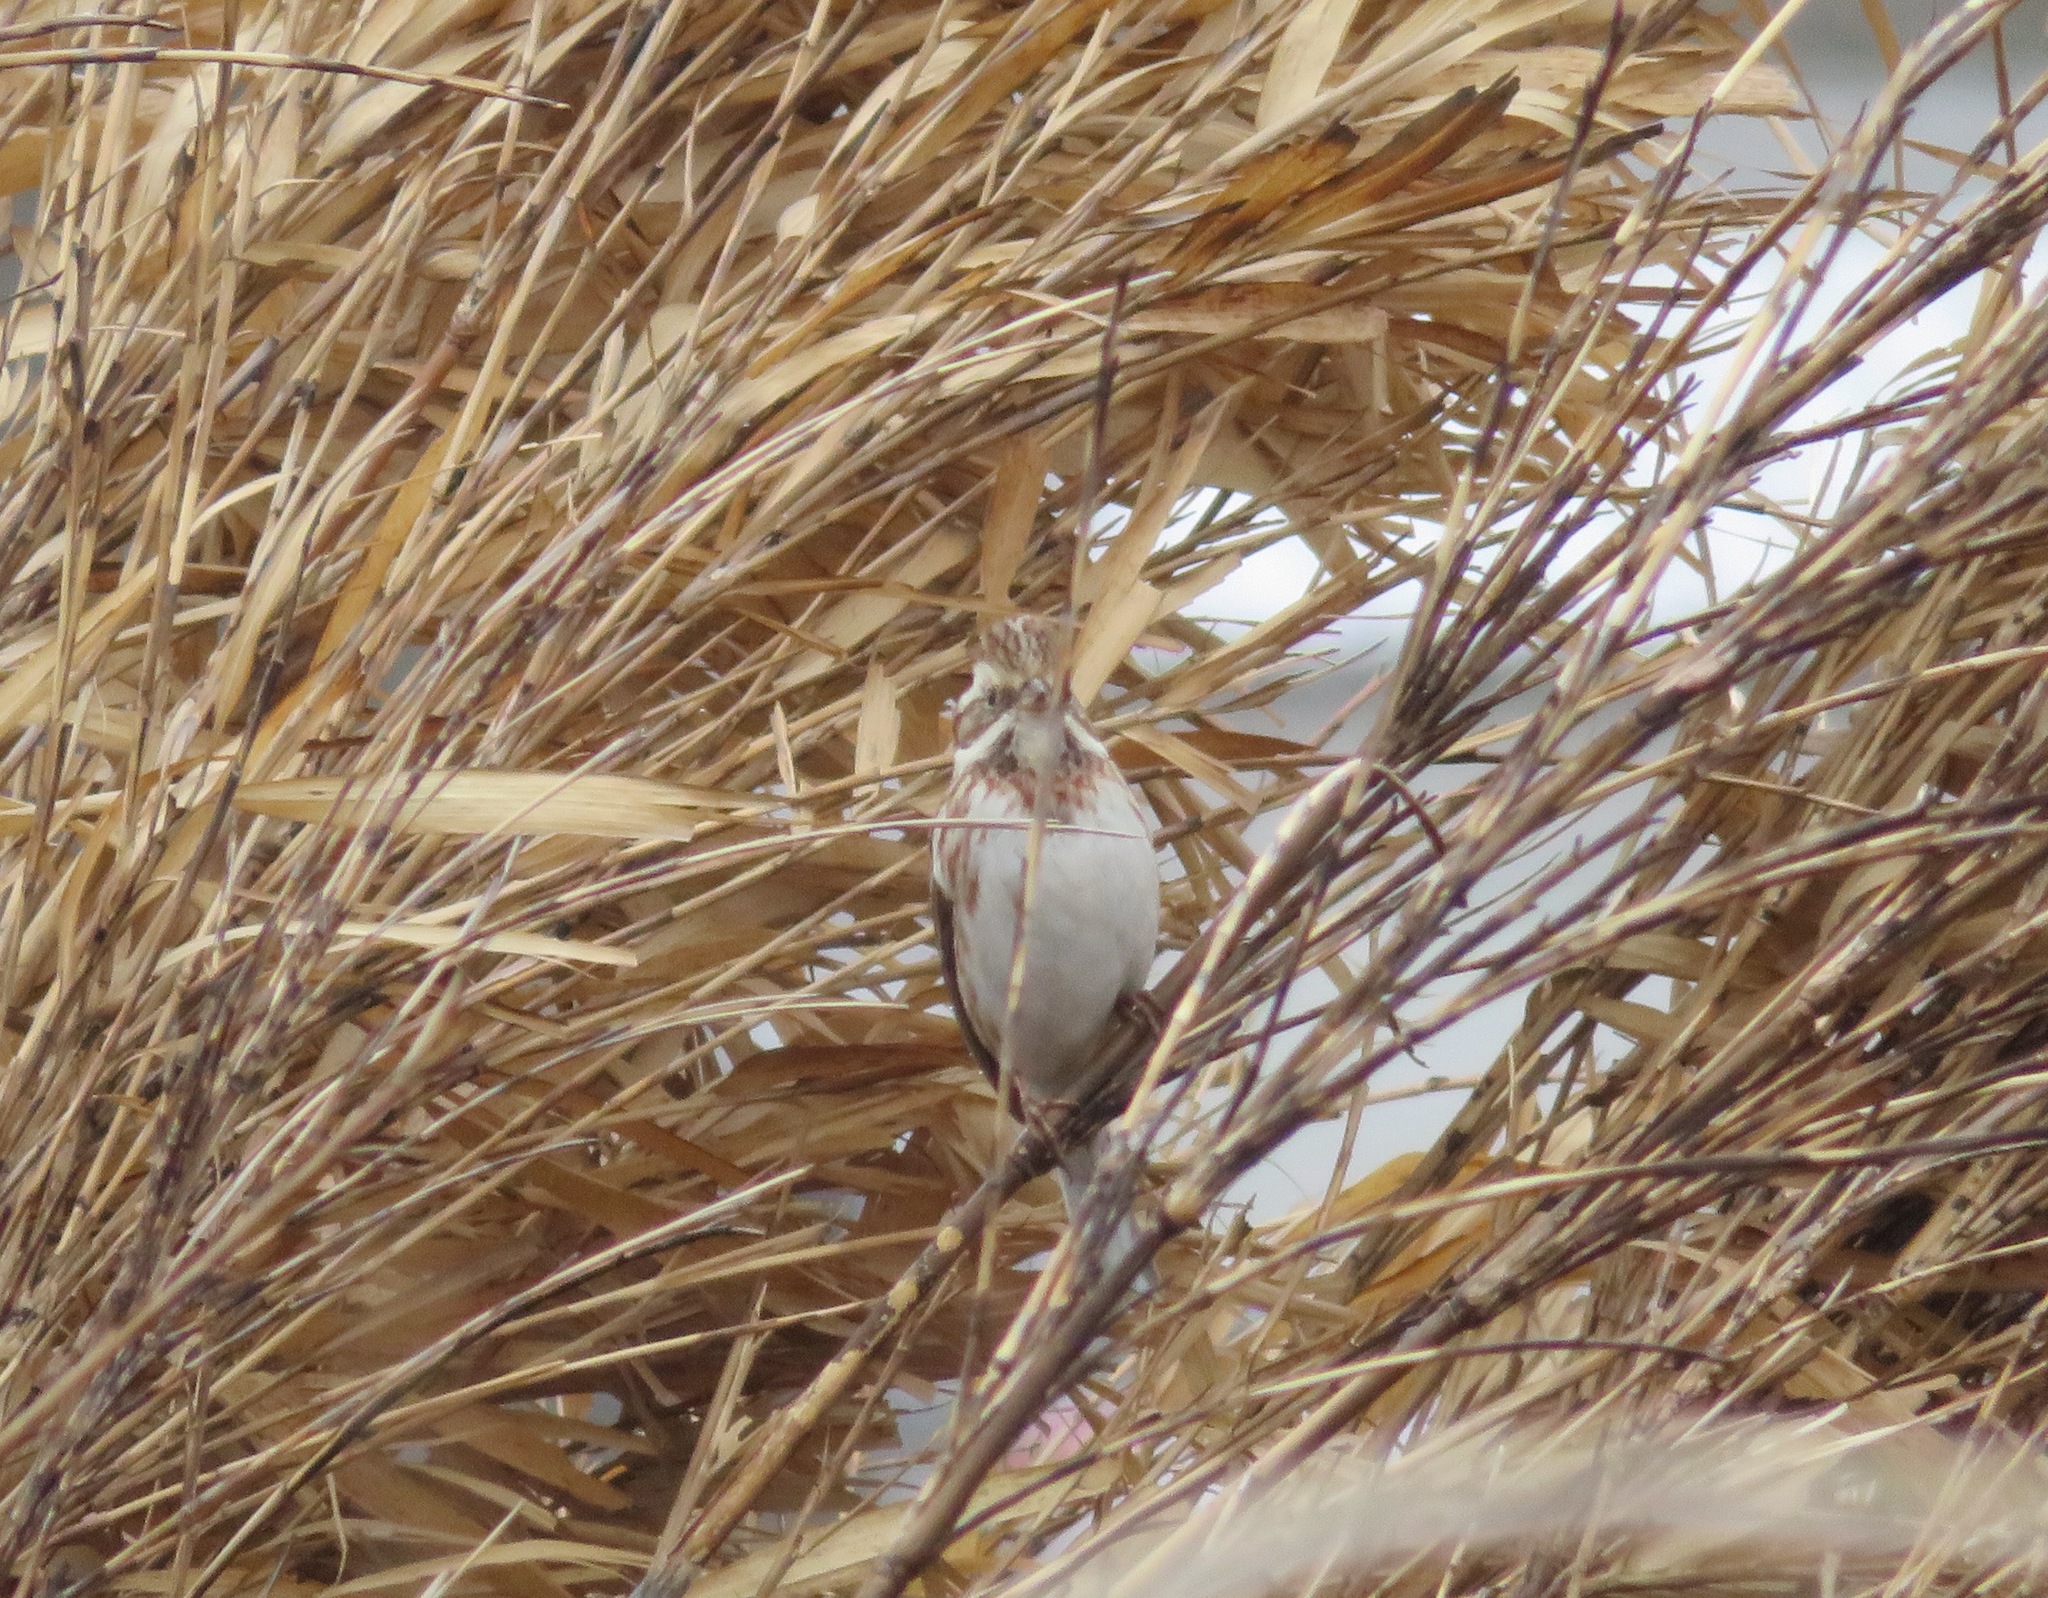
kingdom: Animalia
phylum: Chordata
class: Aves
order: Passeriformes
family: Emberizidae
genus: Emberiza
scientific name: Emberiza rustica
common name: Rustic bunting
